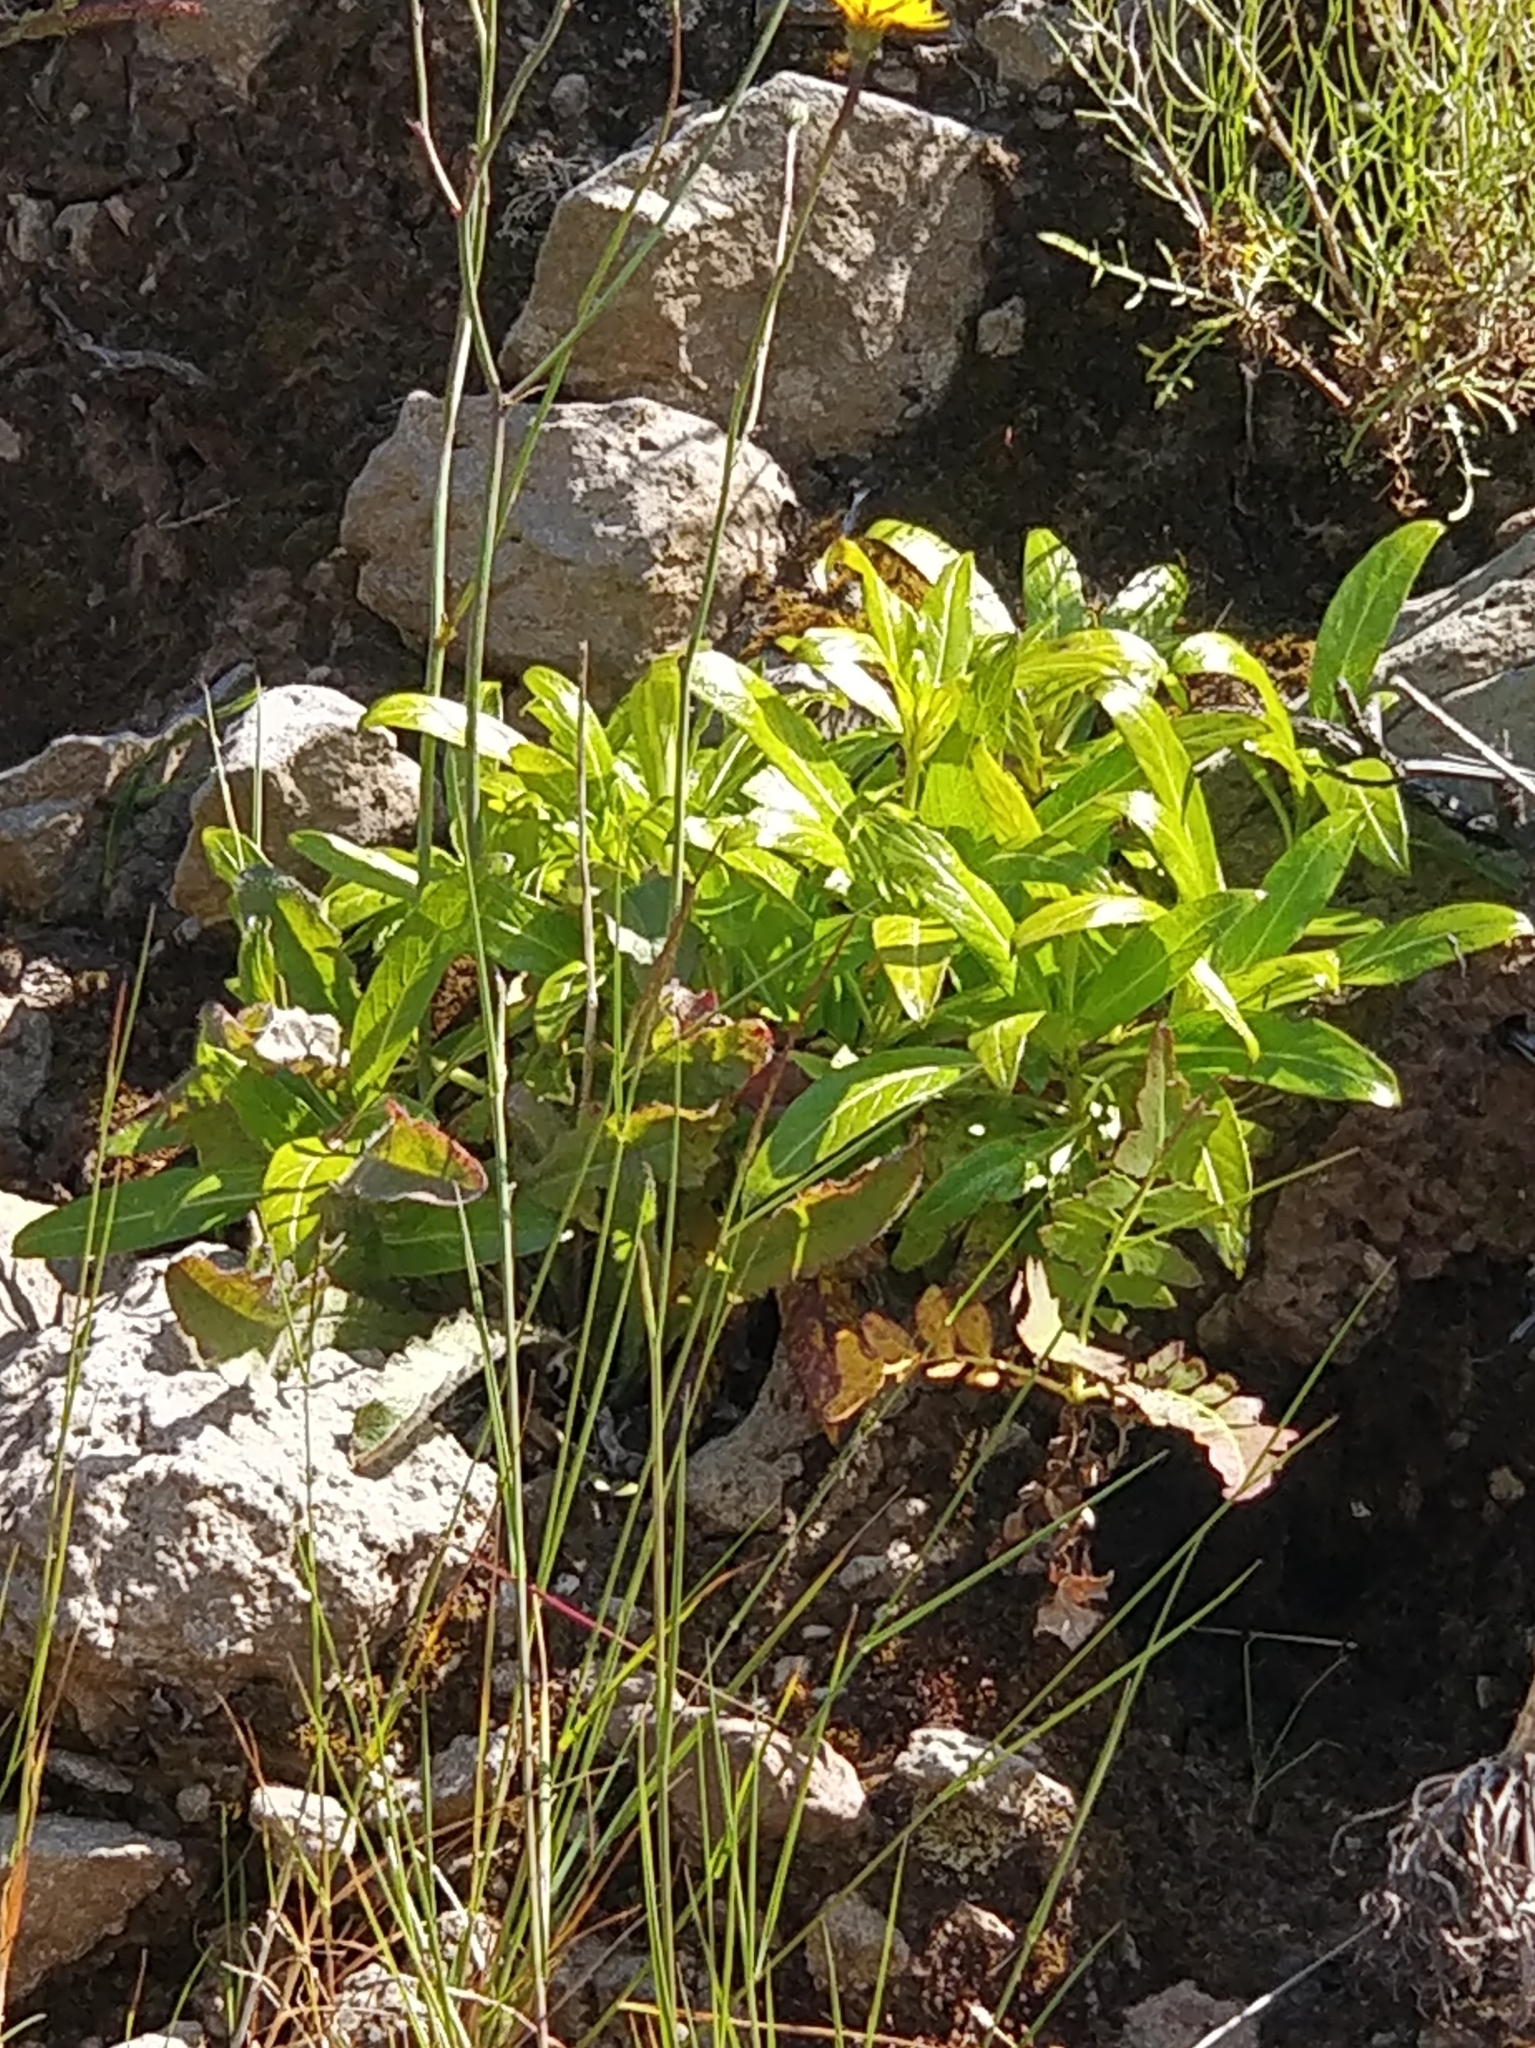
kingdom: Plantae
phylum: Tracheophyta
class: Magnoliopsida
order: Gentianales
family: Rubiaceae
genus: Phyllis
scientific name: Phyllis nobla
